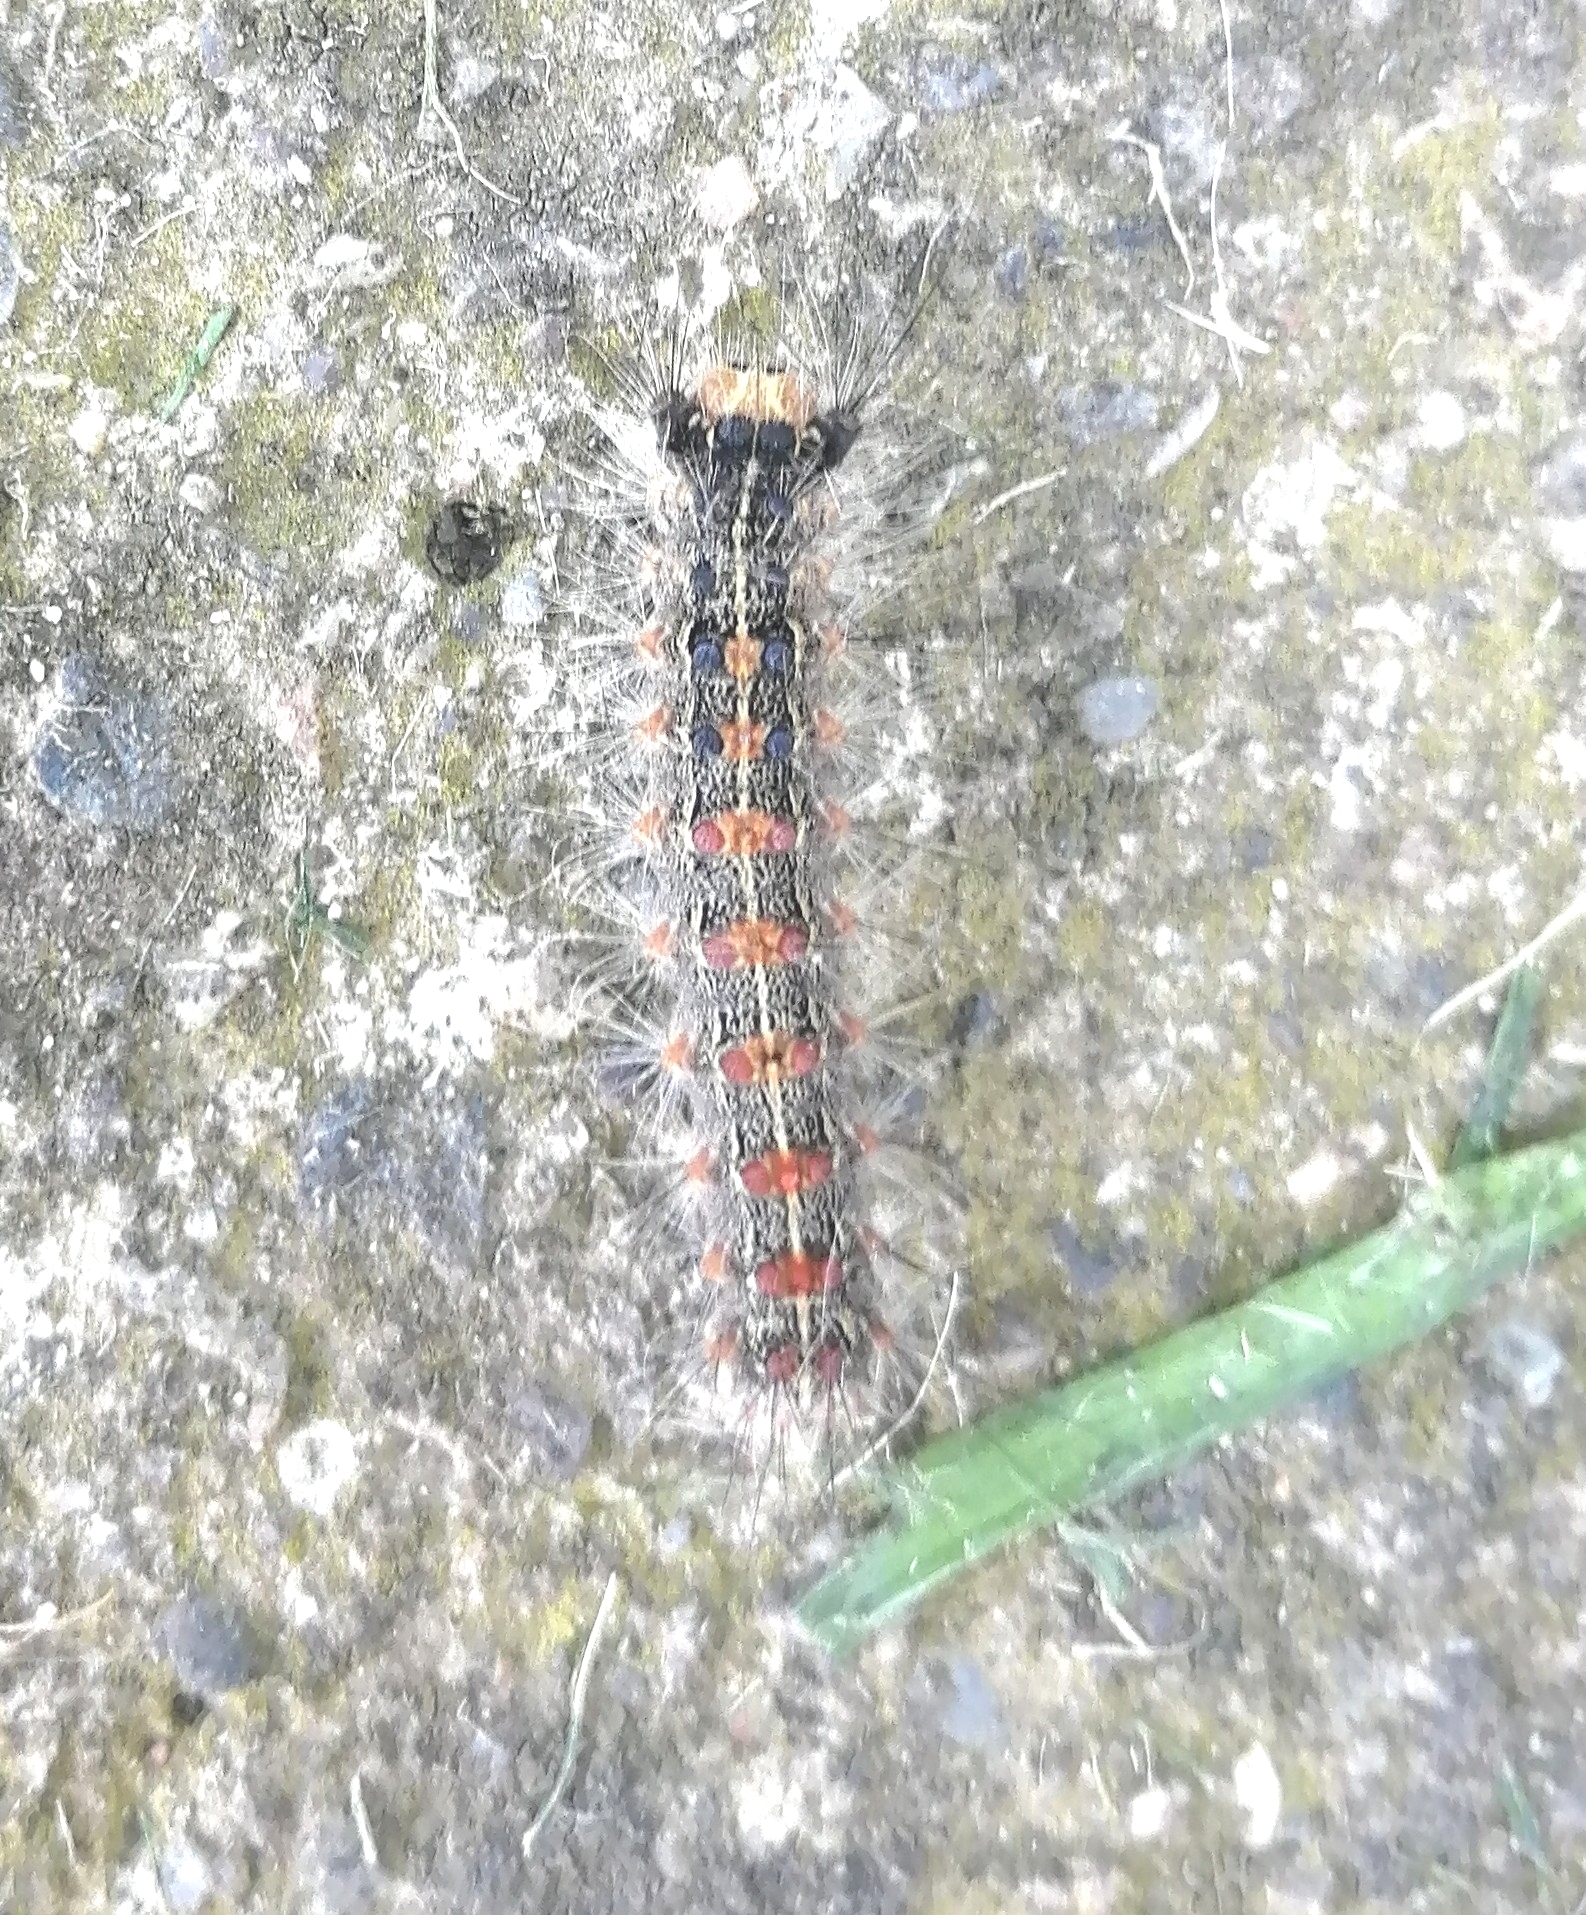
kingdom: Animalia
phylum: Arthropoda
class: Insecta
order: Lepidoptera
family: Erebidae
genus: Lymantria
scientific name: Lymantria dispar
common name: Gypsy moth
